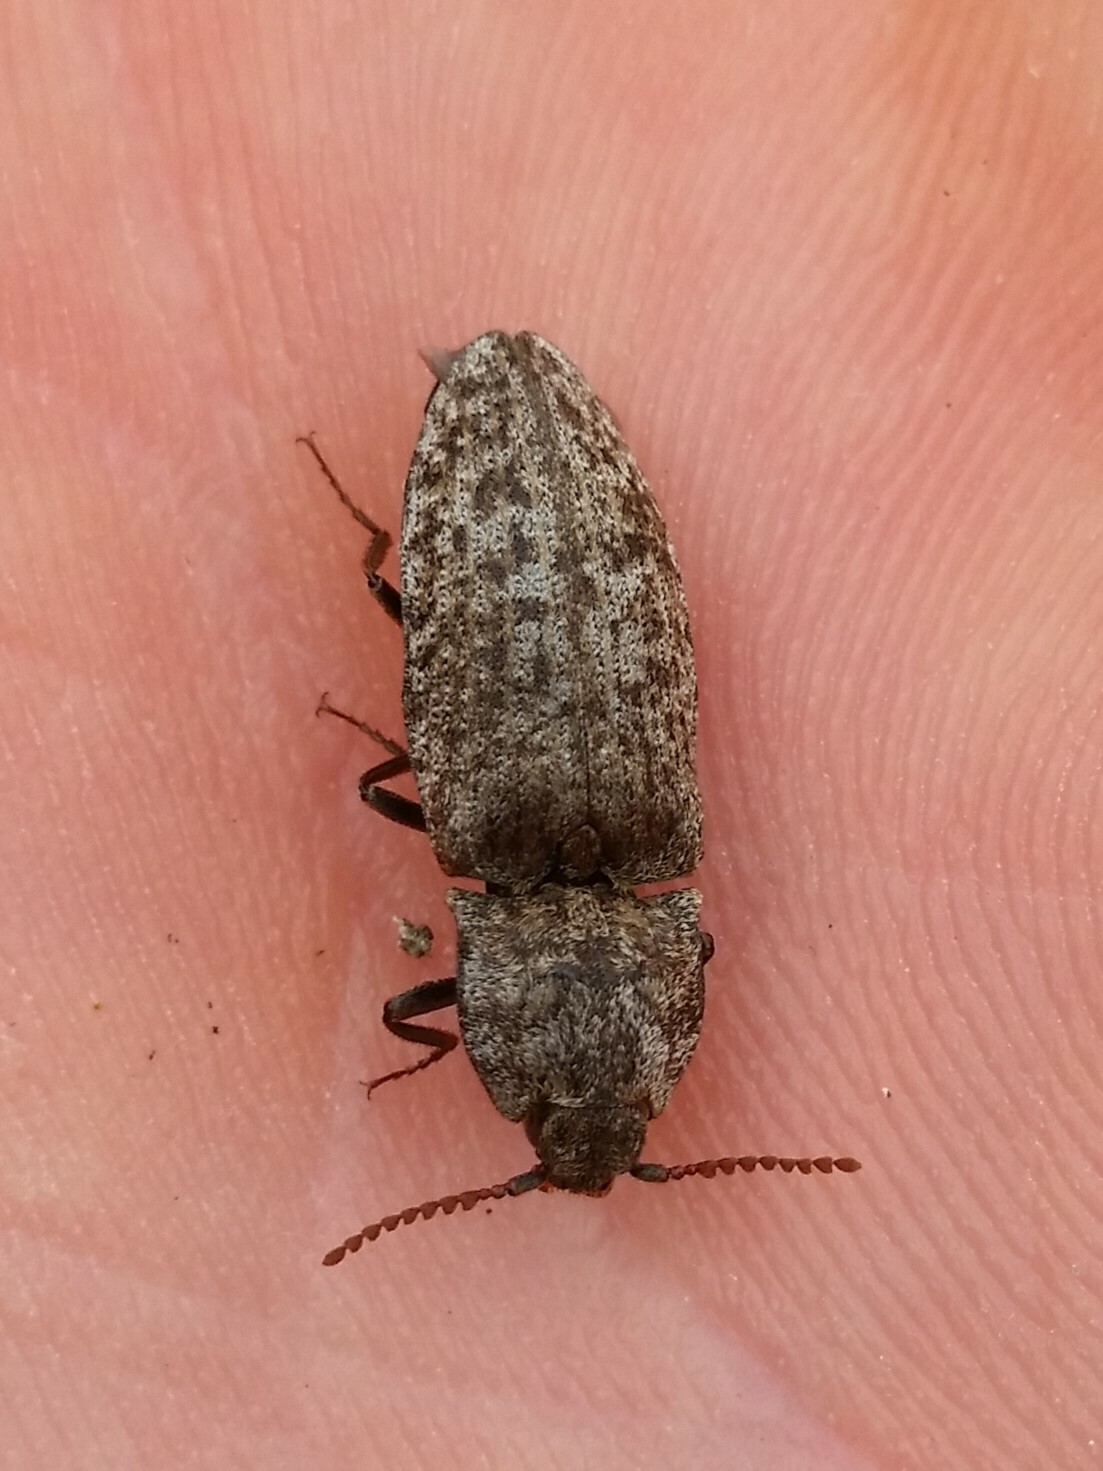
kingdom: Animalia
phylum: Arthropoda
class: Insecta
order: Coleoptera
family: Elateridae
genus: Agrypnus
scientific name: Agrypnus murinus
